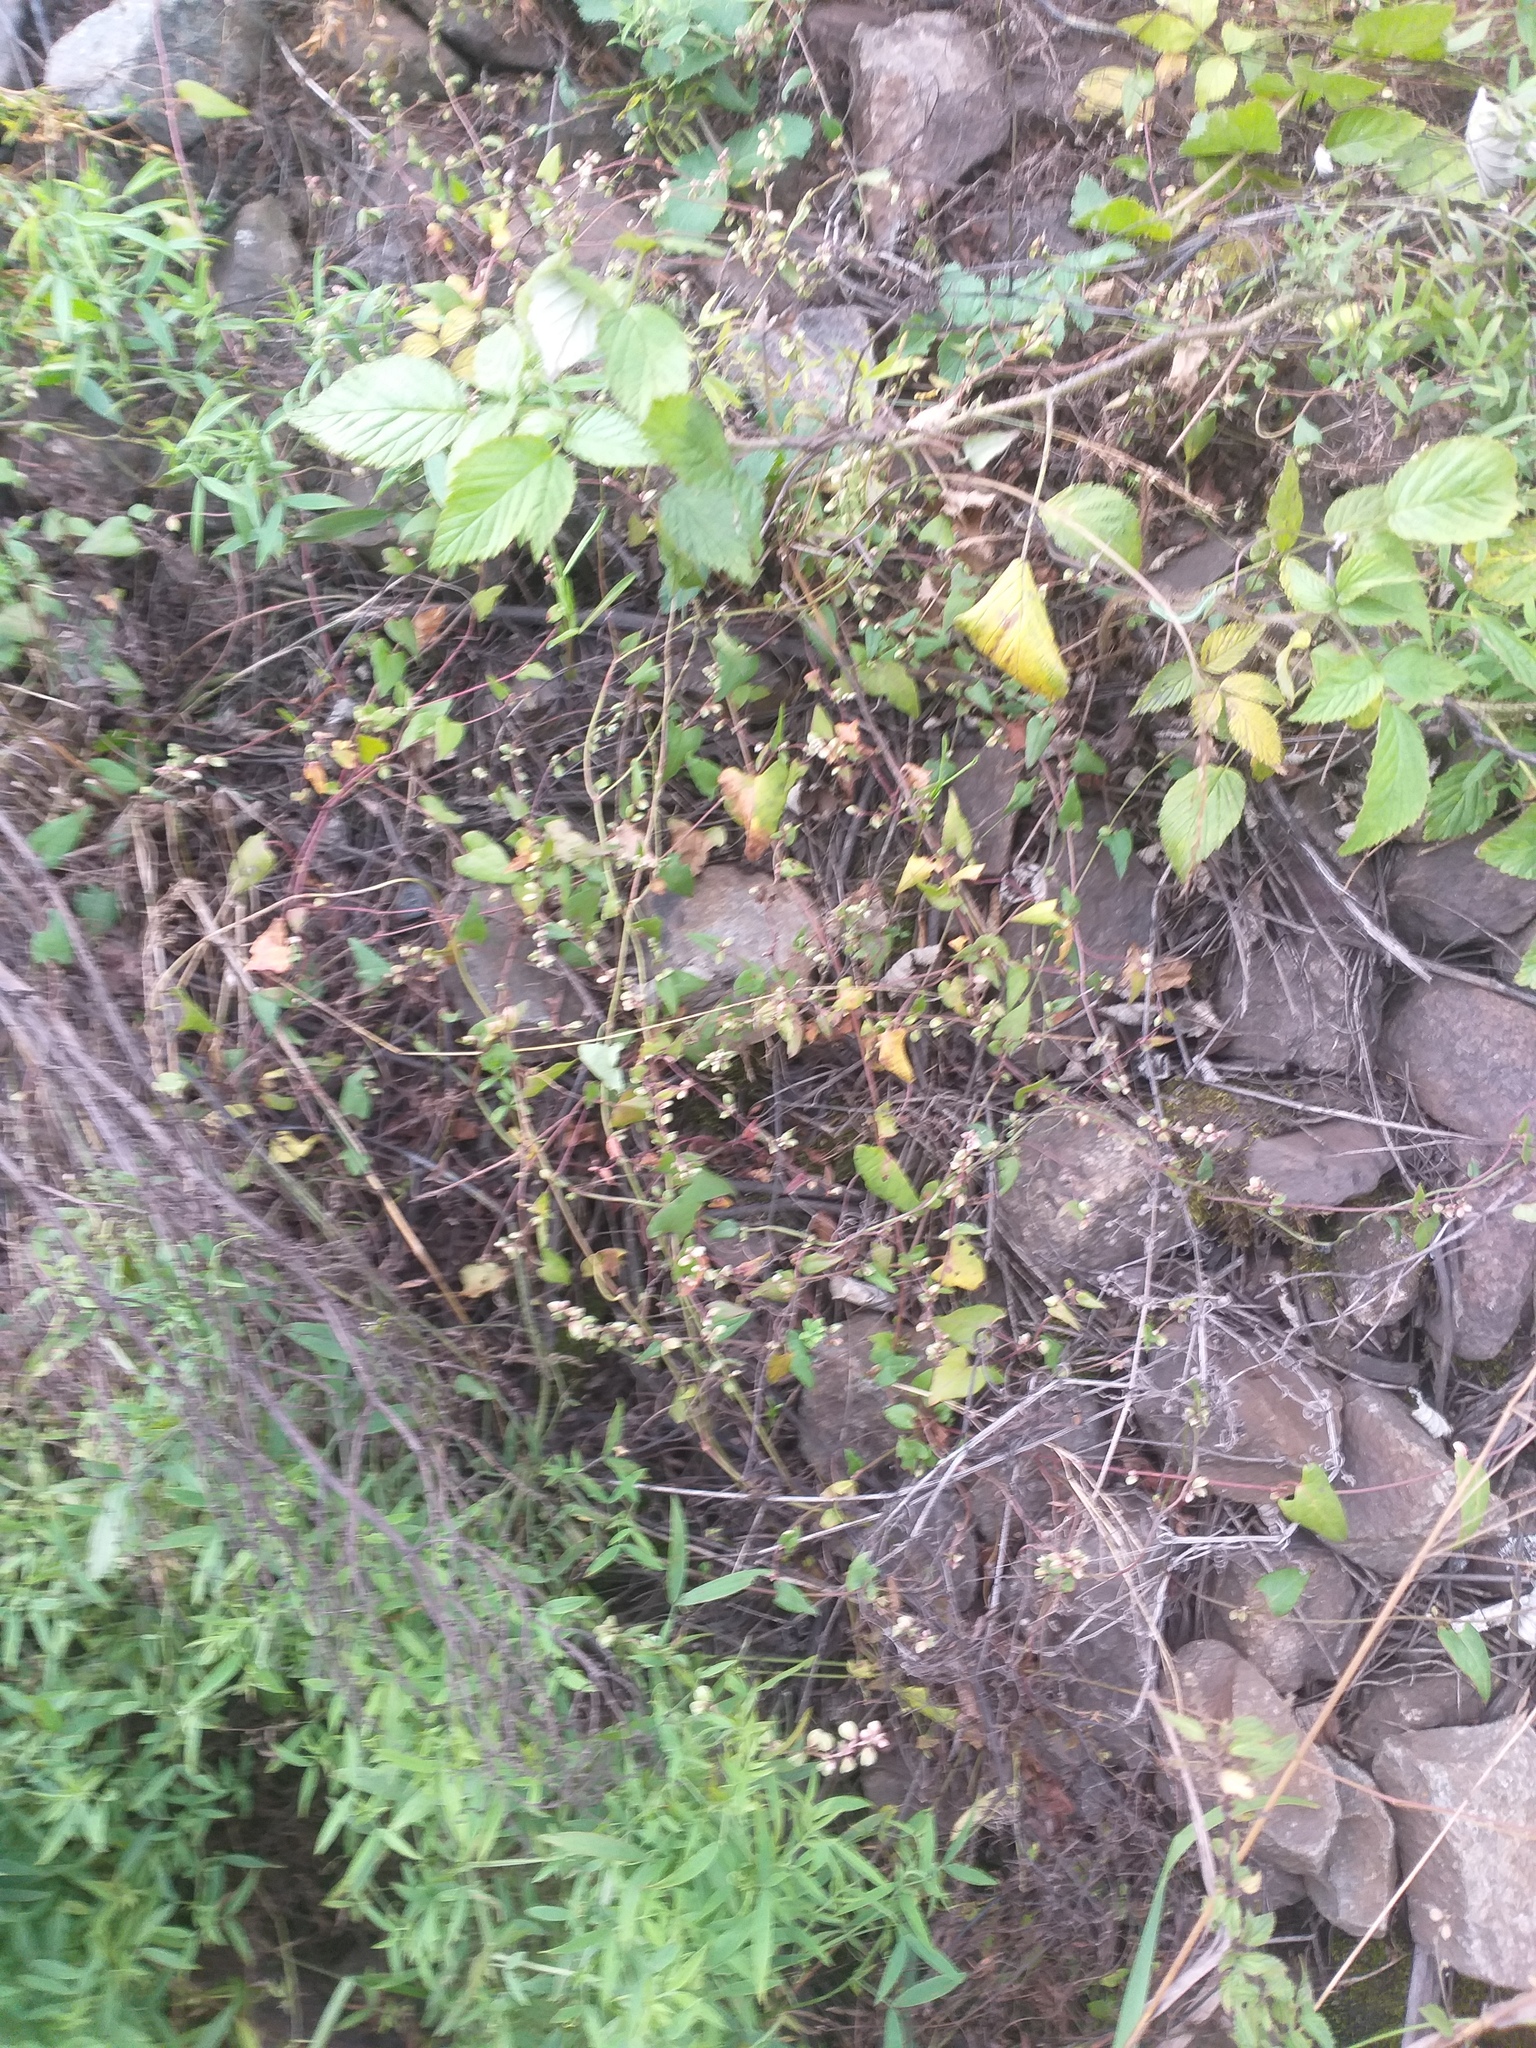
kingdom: Plantae
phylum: Tracheophyta
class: Magnoliopsida
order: Caryophyllales
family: Polygonaceae
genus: Fallopia
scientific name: Fallopia convolvulus
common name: Black bindweed
